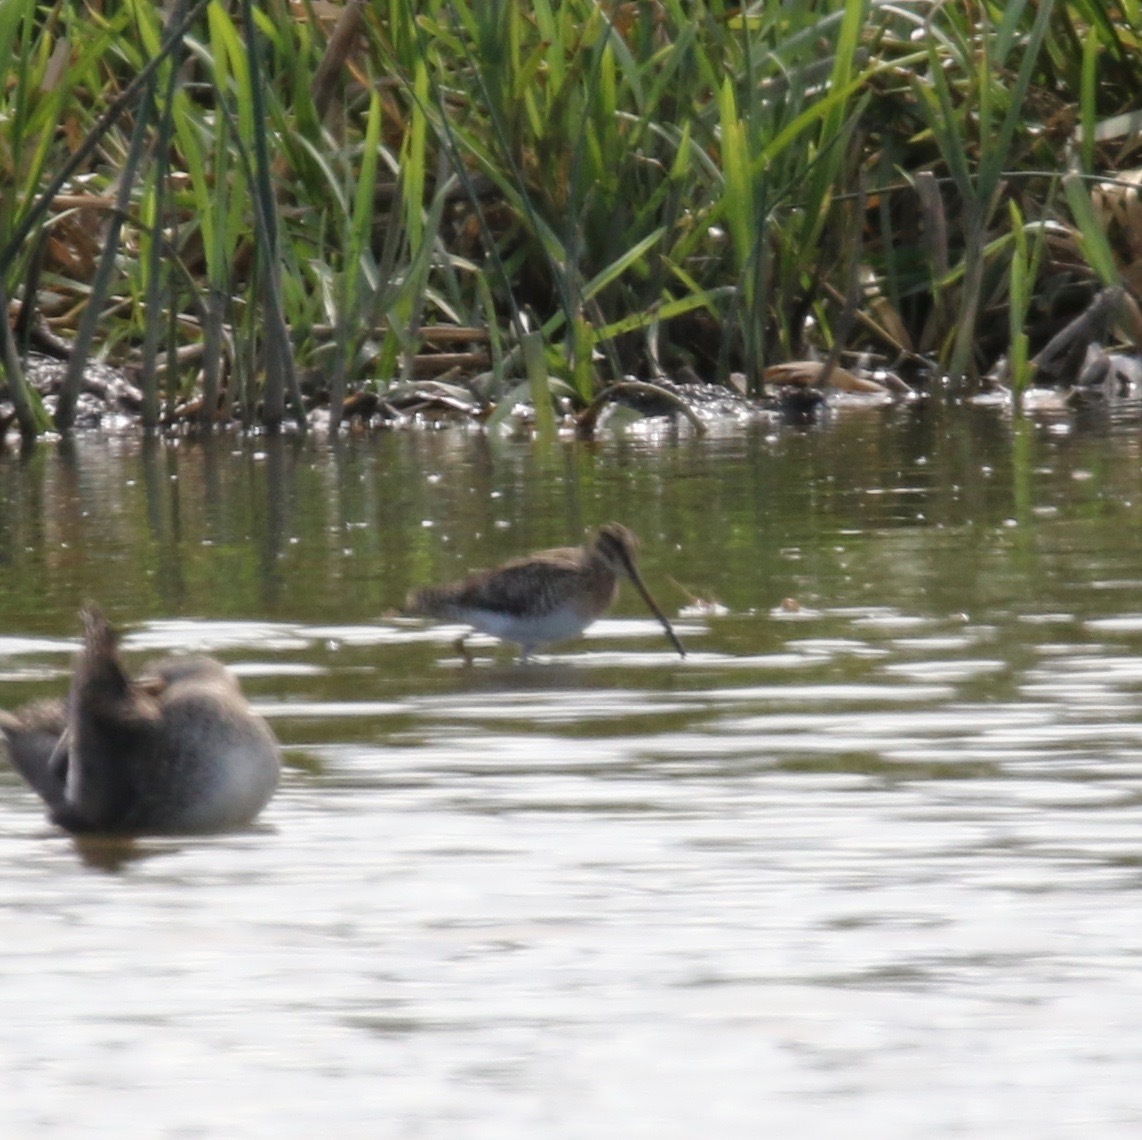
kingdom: Animalia
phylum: Chordata
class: Aves
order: Charadriiformes
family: Scolopacidae
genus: Gallinago
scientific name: Gallinago gallinago
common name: Common snipe
